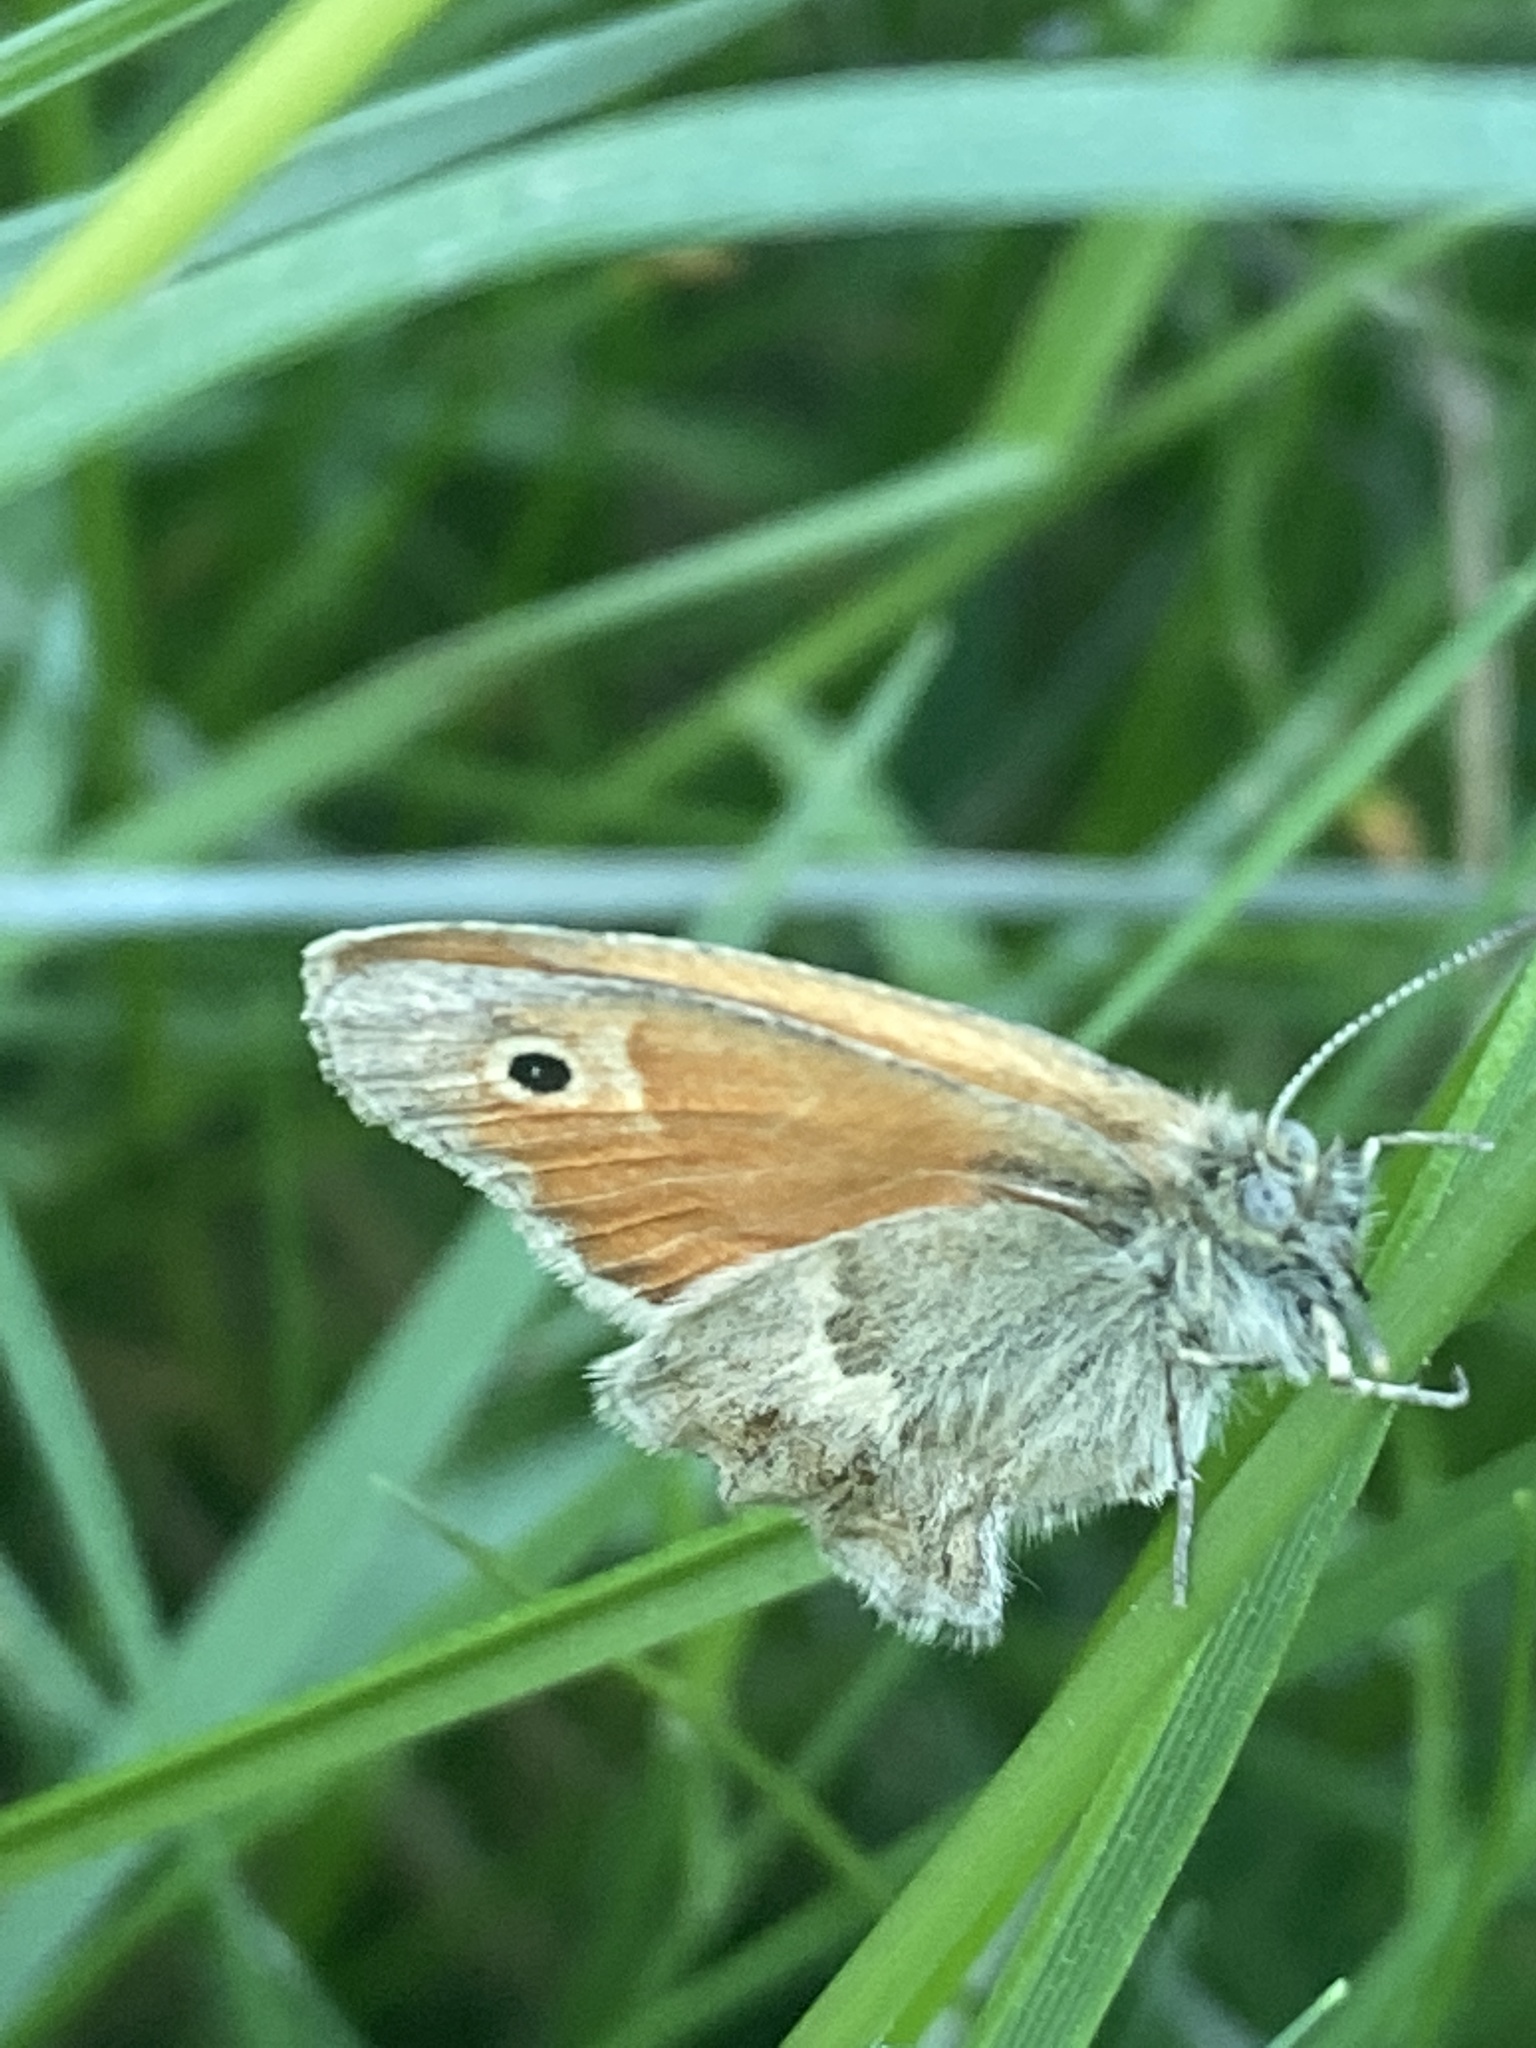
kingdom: Animalia
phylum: Arthropoda
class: Insecta
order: Lepidoptera
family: Nymphalidae
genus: Coenonympha
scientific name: Coenonympha pamphilus
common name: Small heath
